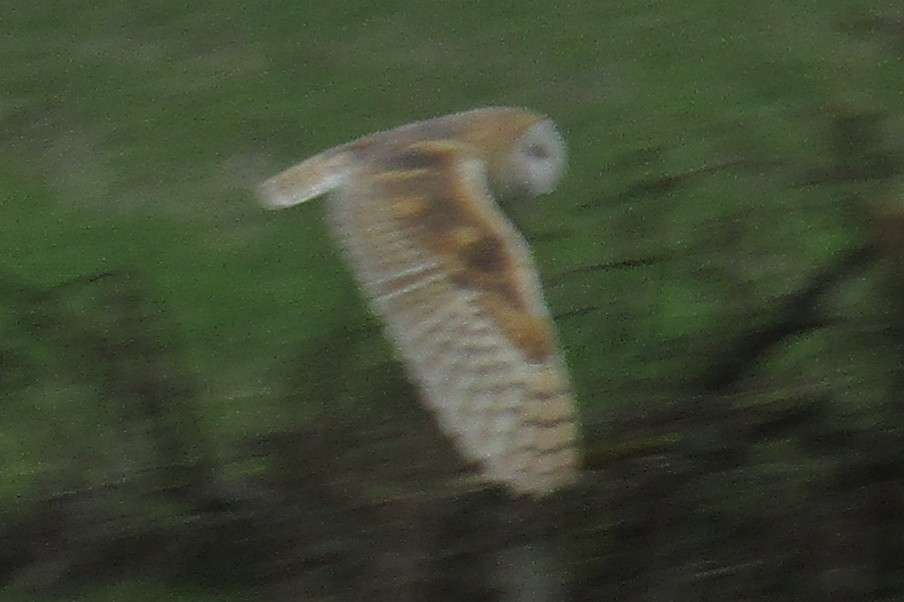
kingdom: Animalia
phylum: Chordata
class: Aves
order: Strigiformes
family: Tytonidae
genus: Tyto
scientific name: Tyto alba
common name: Barn owl
